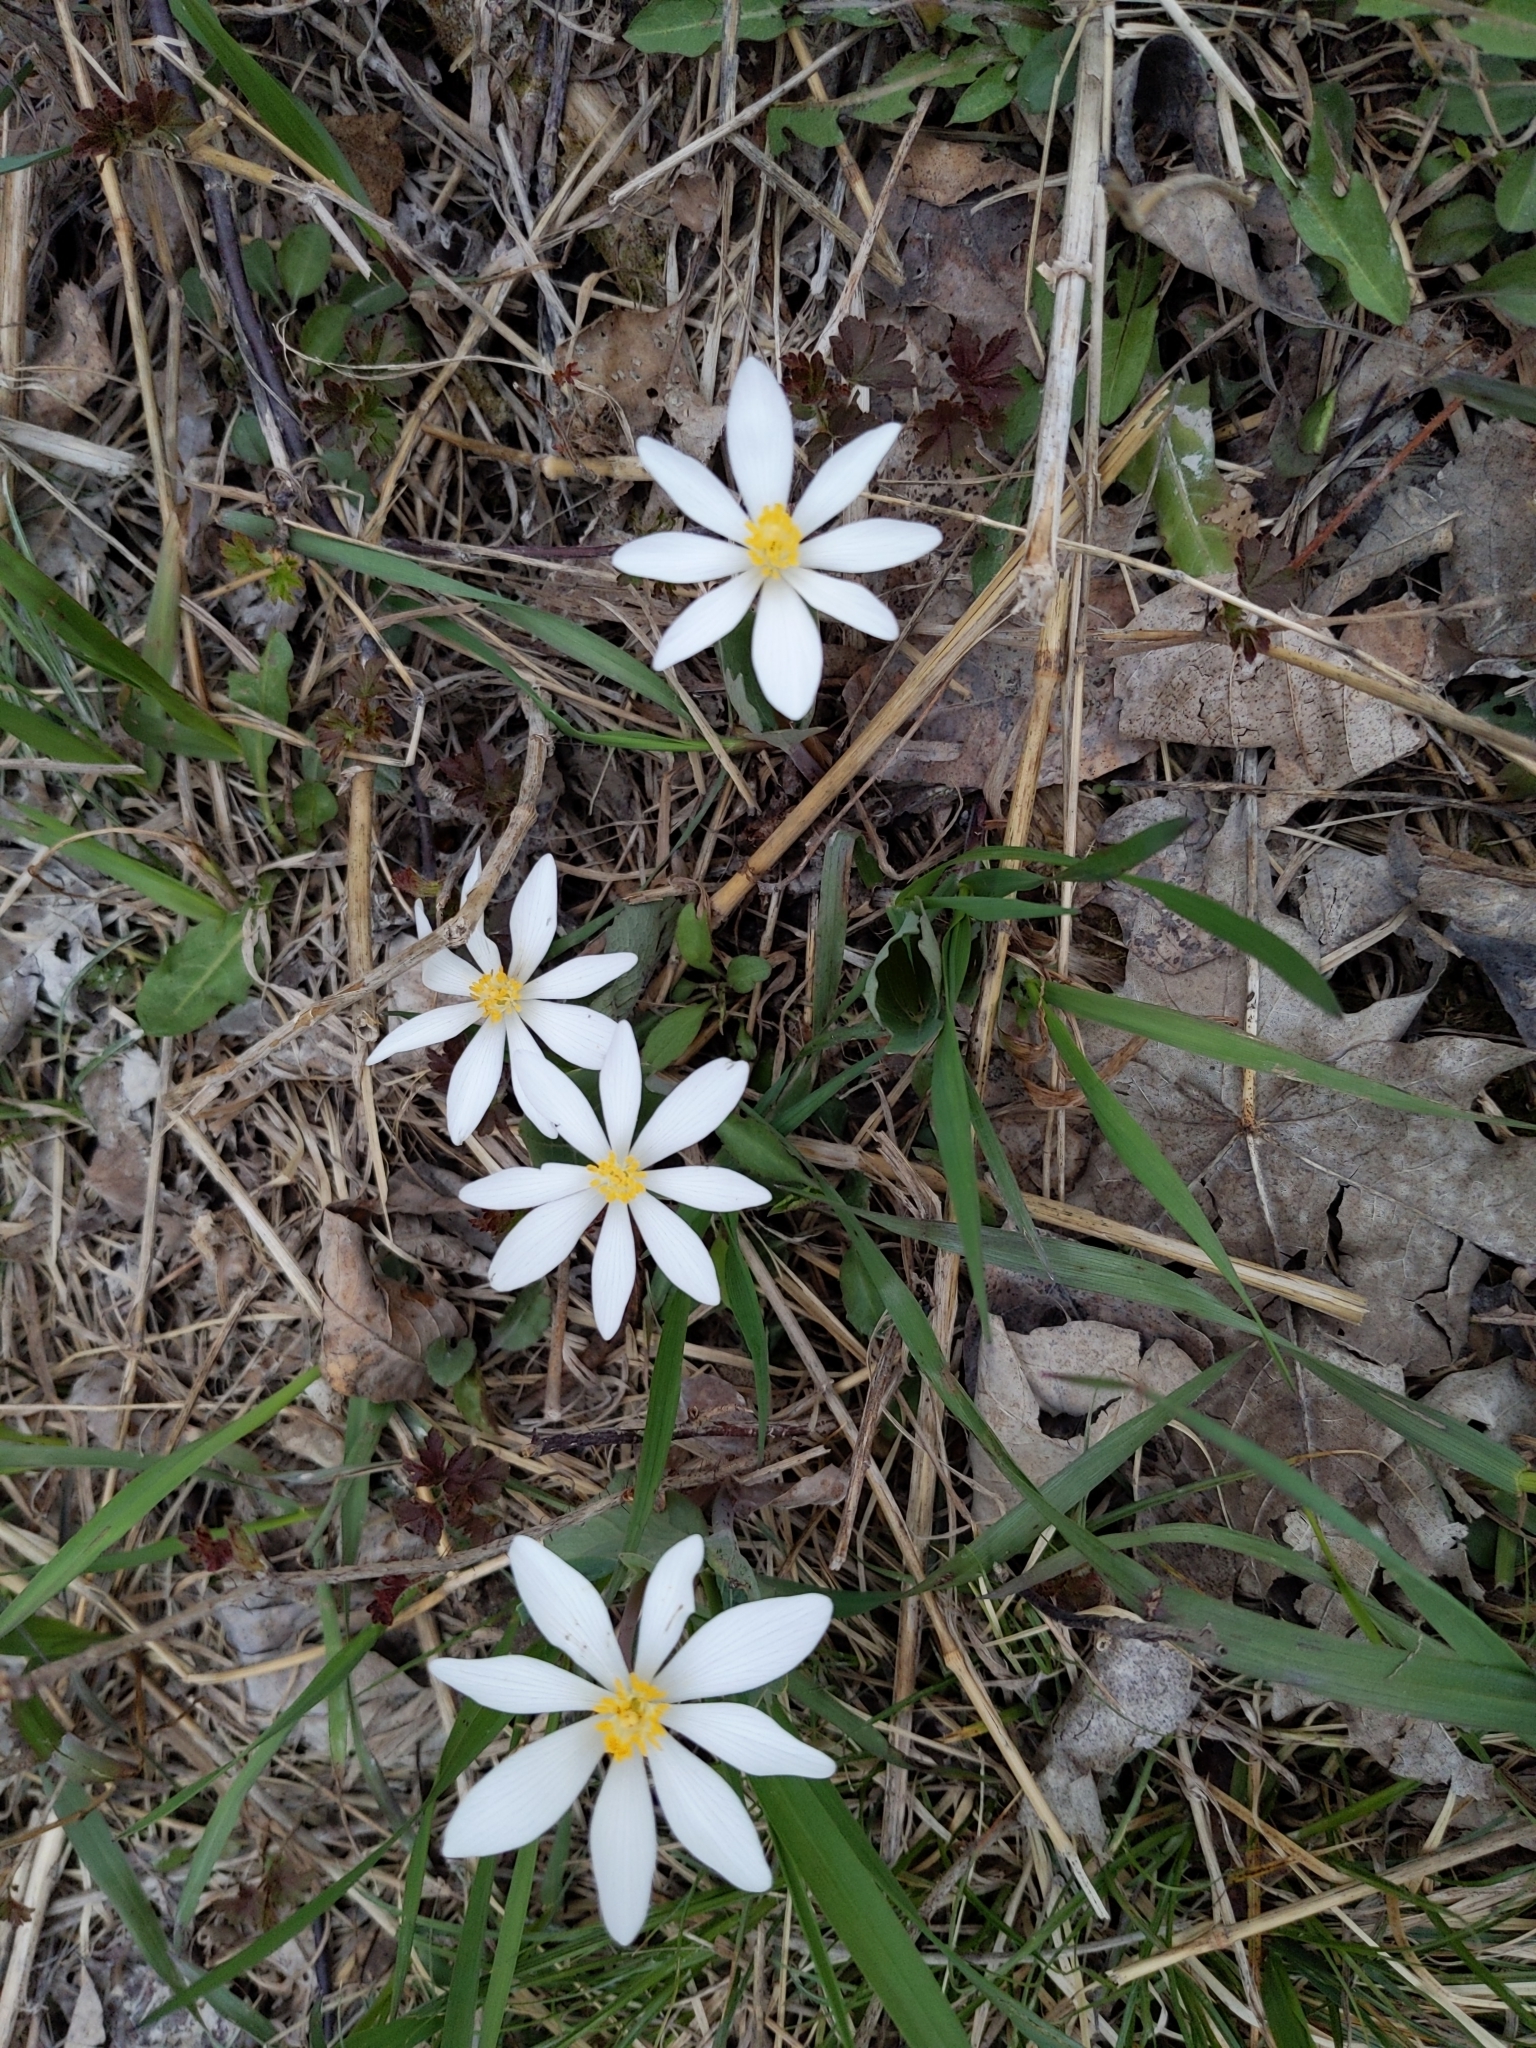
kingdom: Plantae
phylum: Tracheophyta
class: Magnoliopsida
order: Ranunculales
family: Papaveraceae
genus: Sanguinaria
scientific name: Sanguinaria canadensis
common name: Bloodroot
